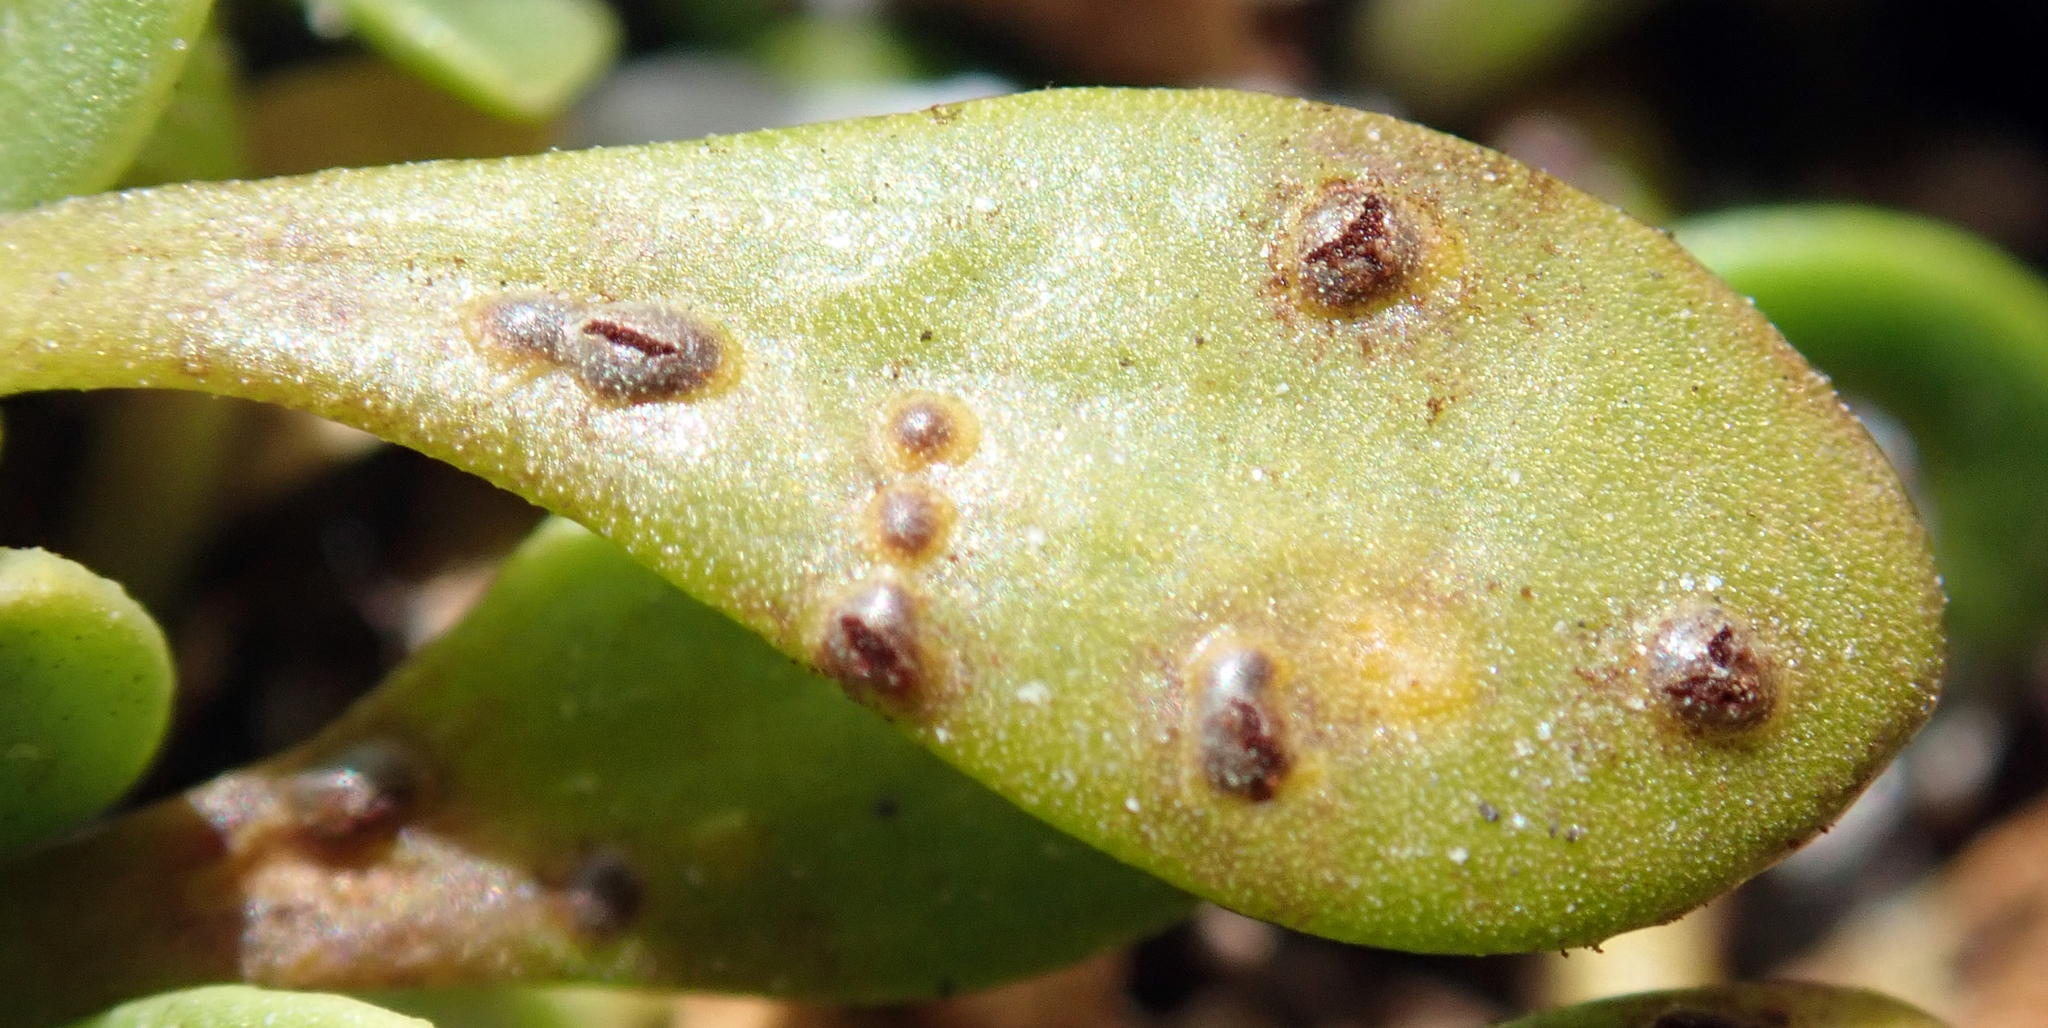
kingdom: Fungi
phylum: Basidiomycota
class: Pucciniomycetes
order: Pucciniales
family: Pucciniaceae
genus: Uromyces
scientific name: Uromyces scaevolae
